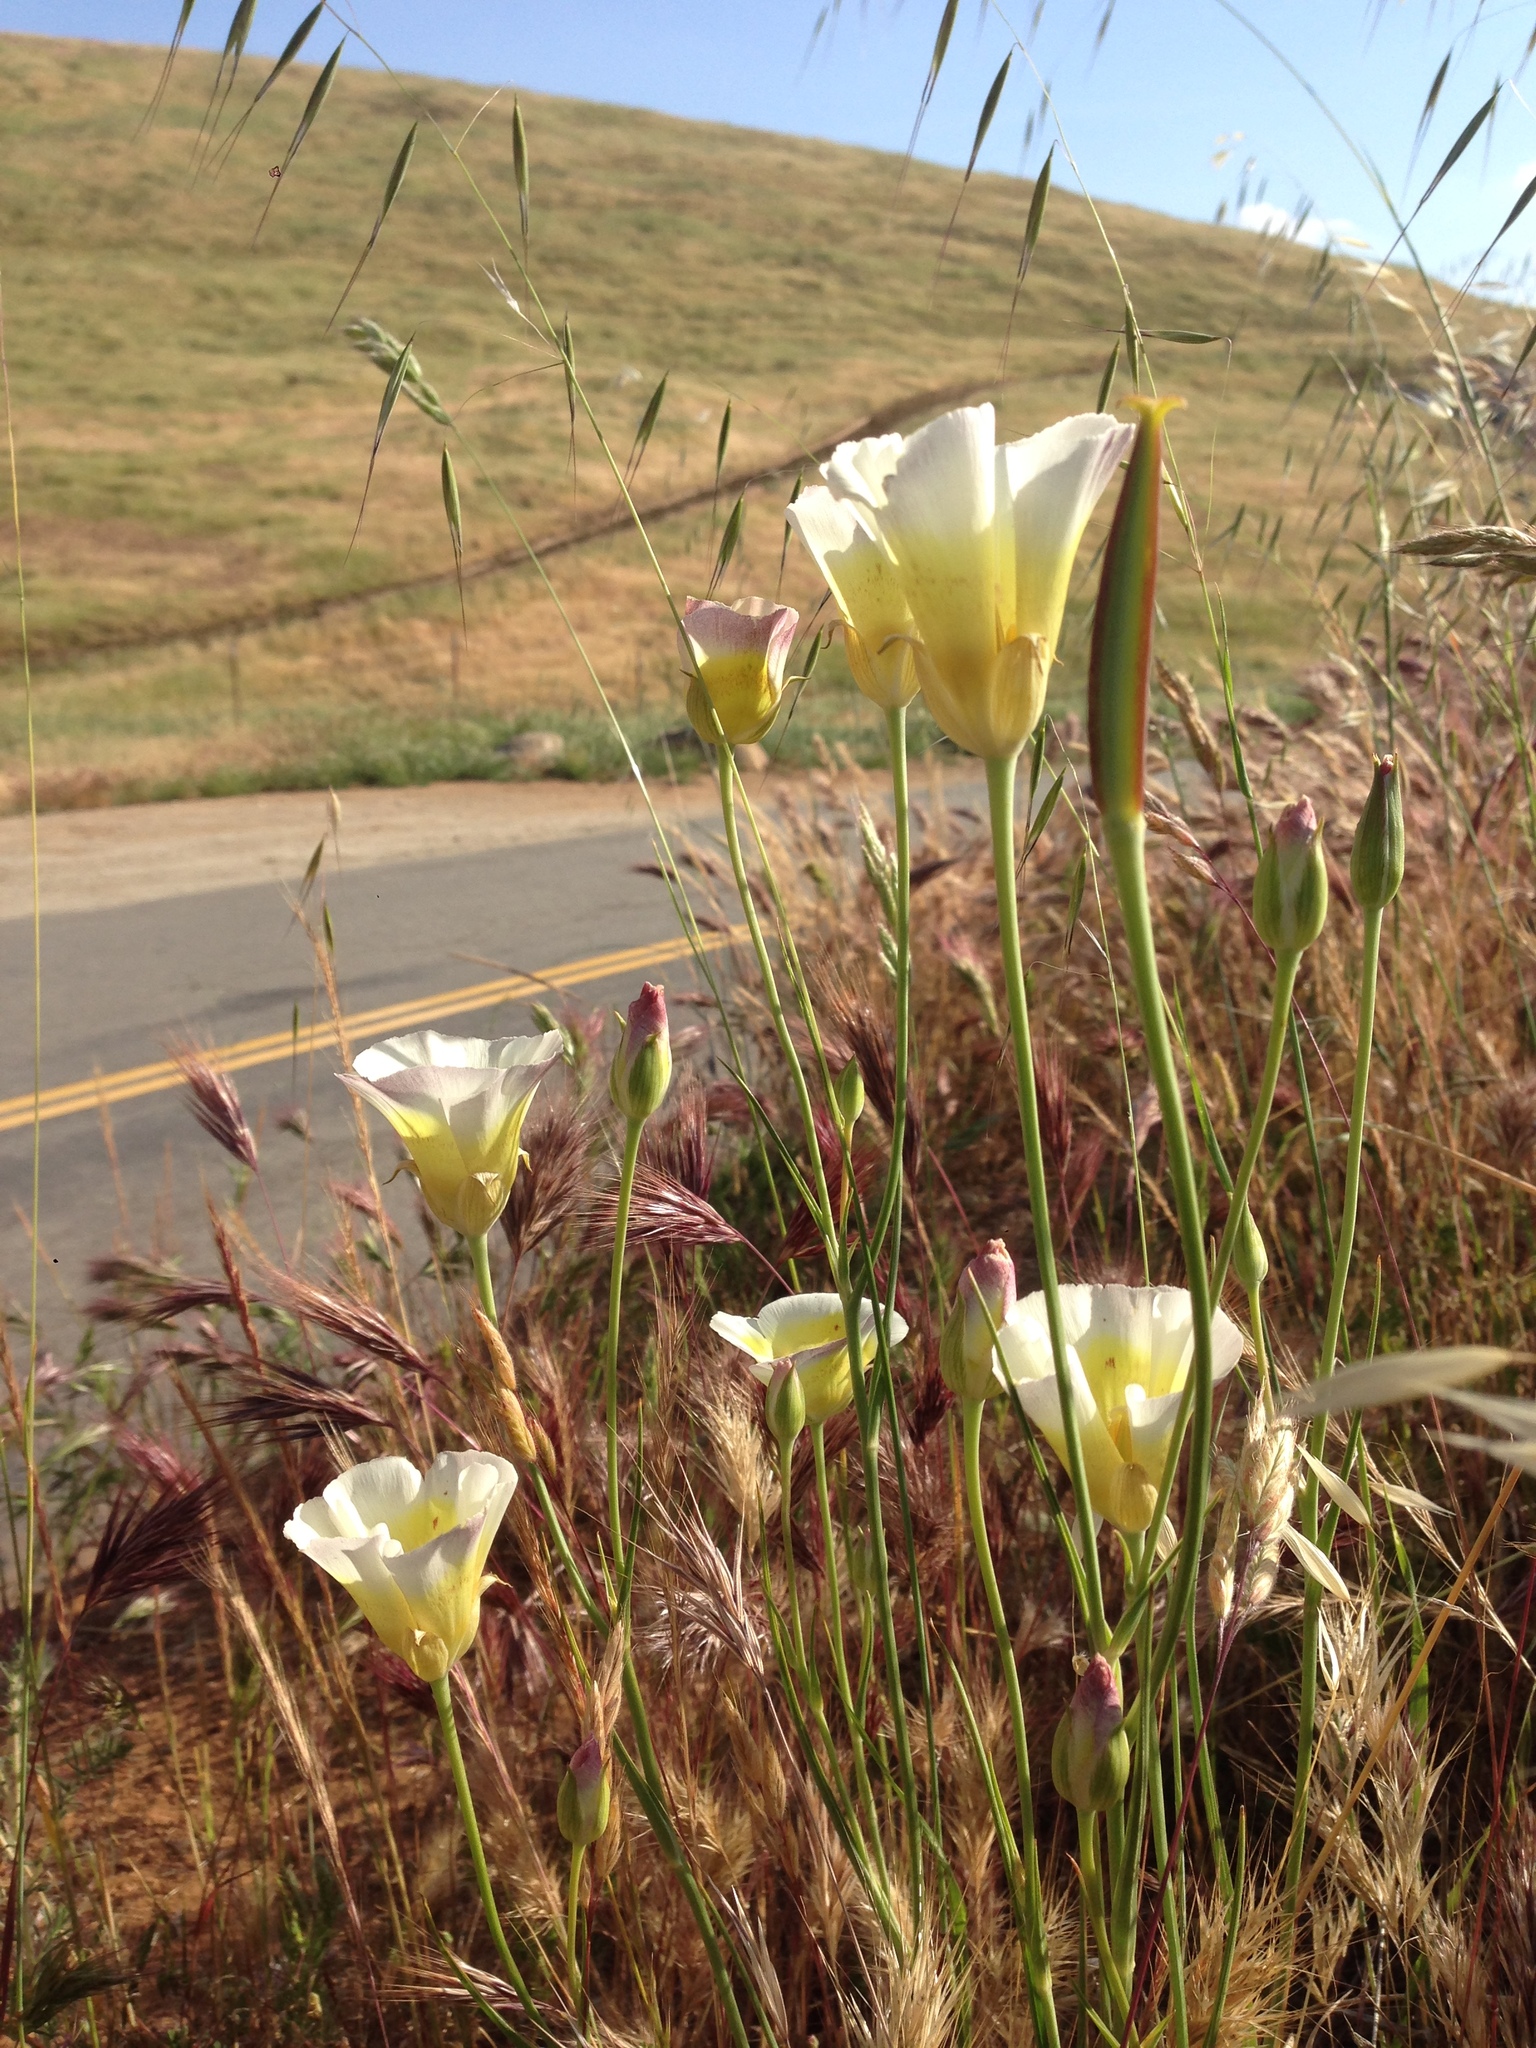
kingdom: Plantae
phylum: Tracheophyta
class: Liliopsida
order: Liliales
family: Liliaceae
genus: Calochortus
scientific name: Calochortus superbus
